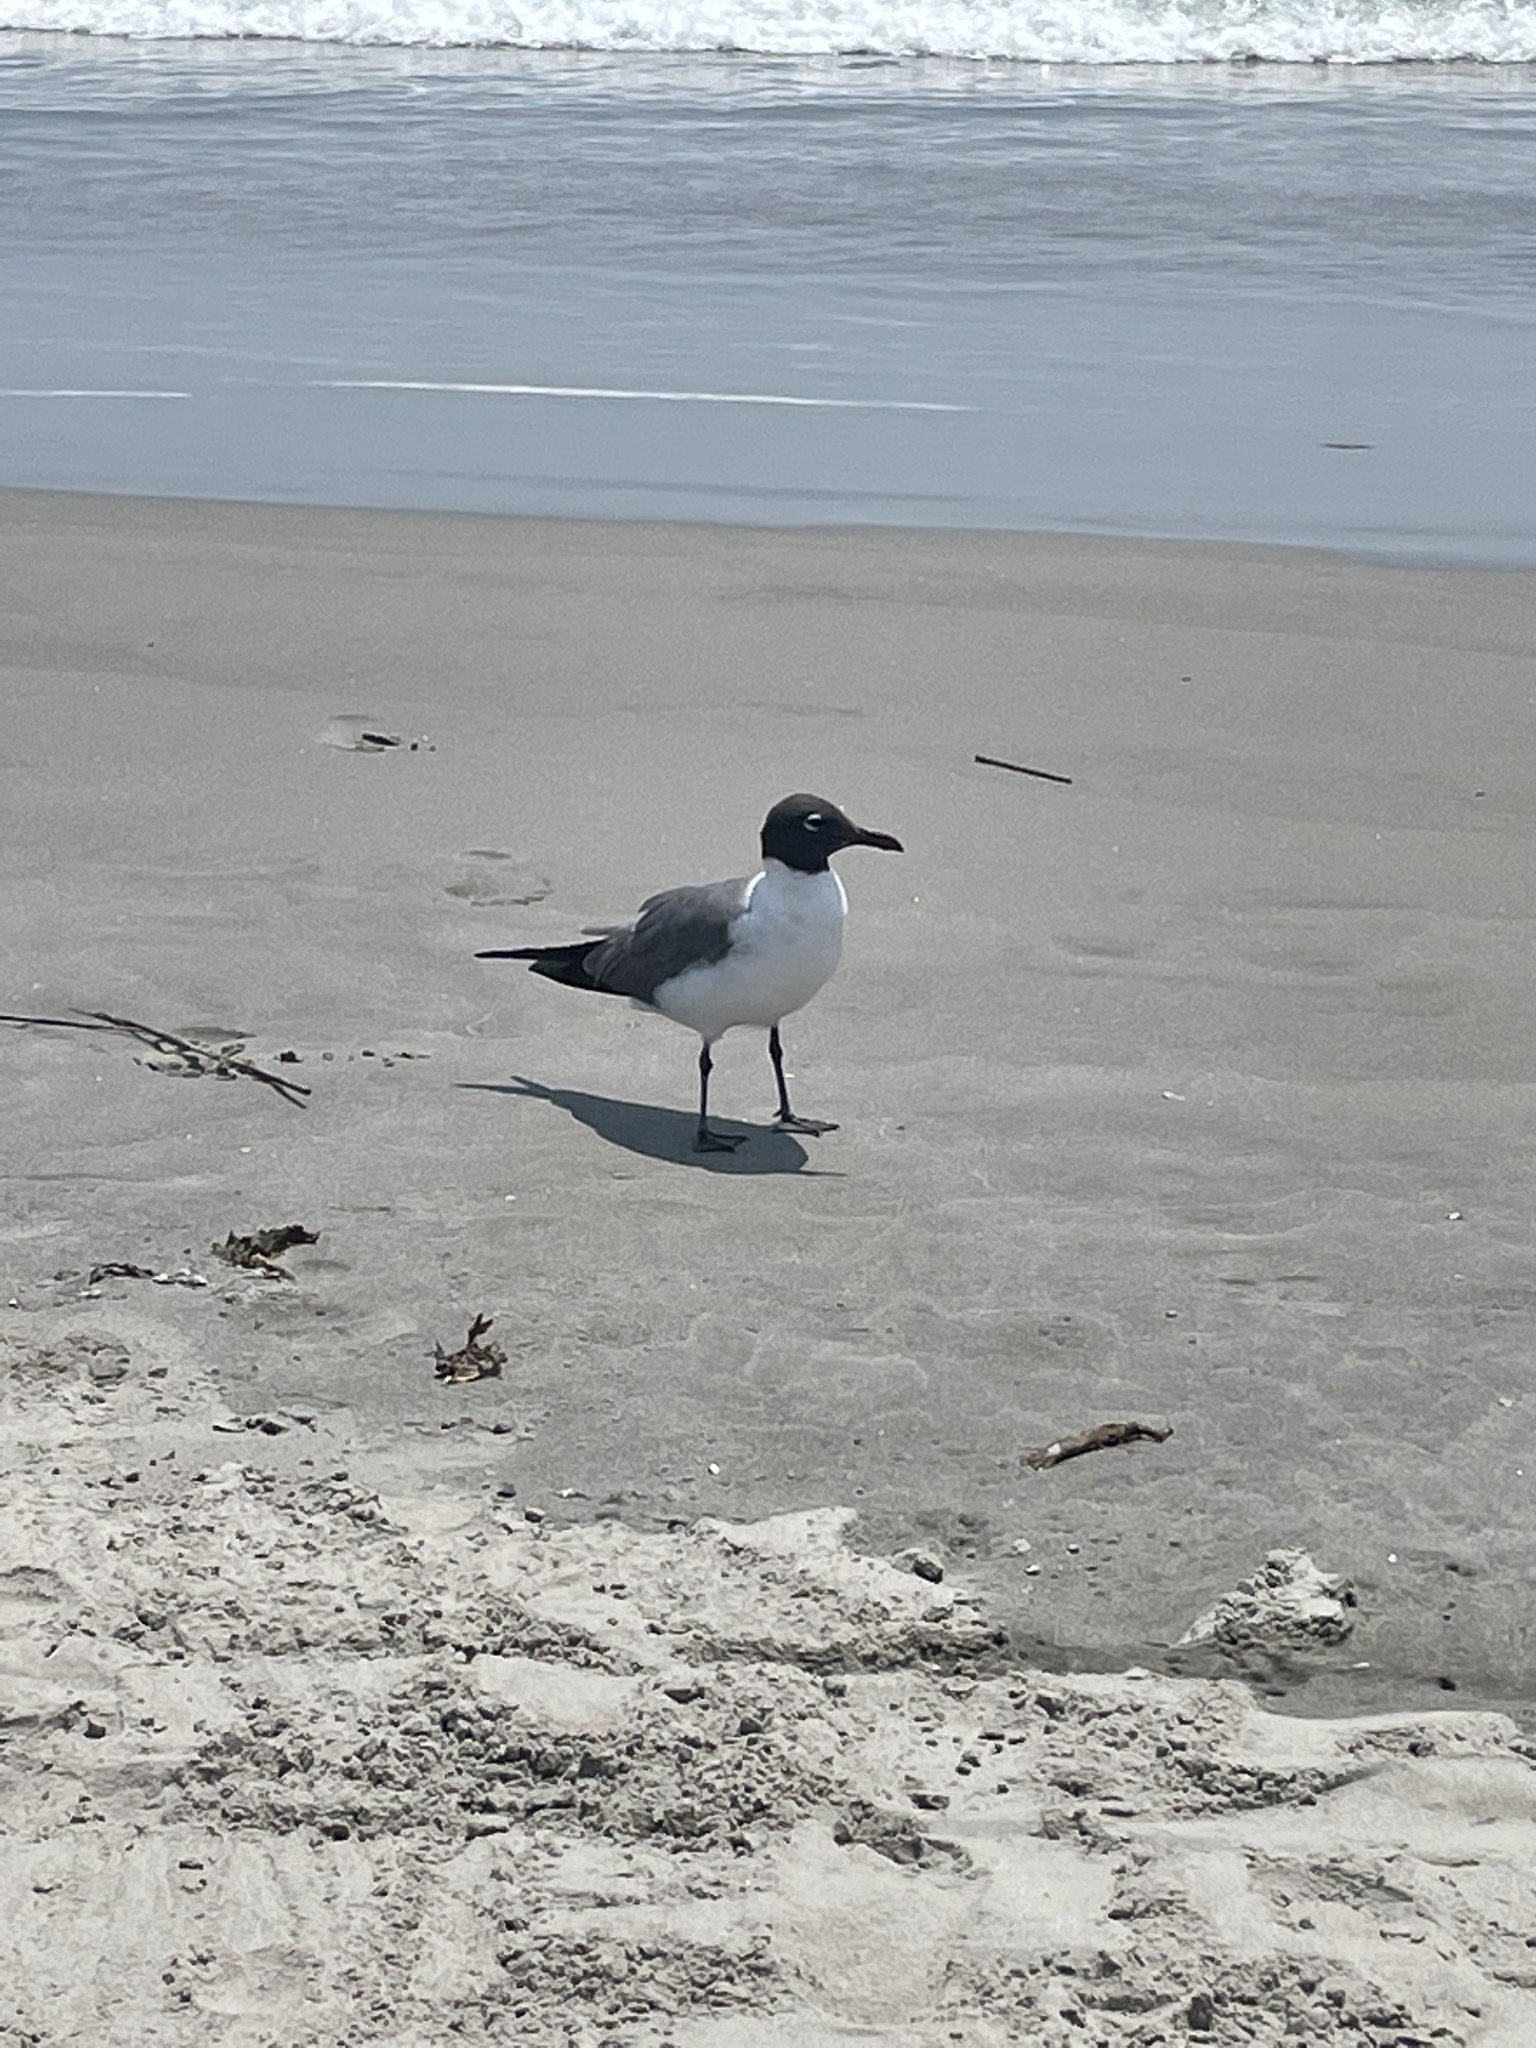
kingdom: Animalia
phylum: Chordata
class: Aves
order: Charadriiformes
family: Laridae
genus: Leucophaeus
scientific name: Leucophaeus atricilla
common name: Laughing gull
